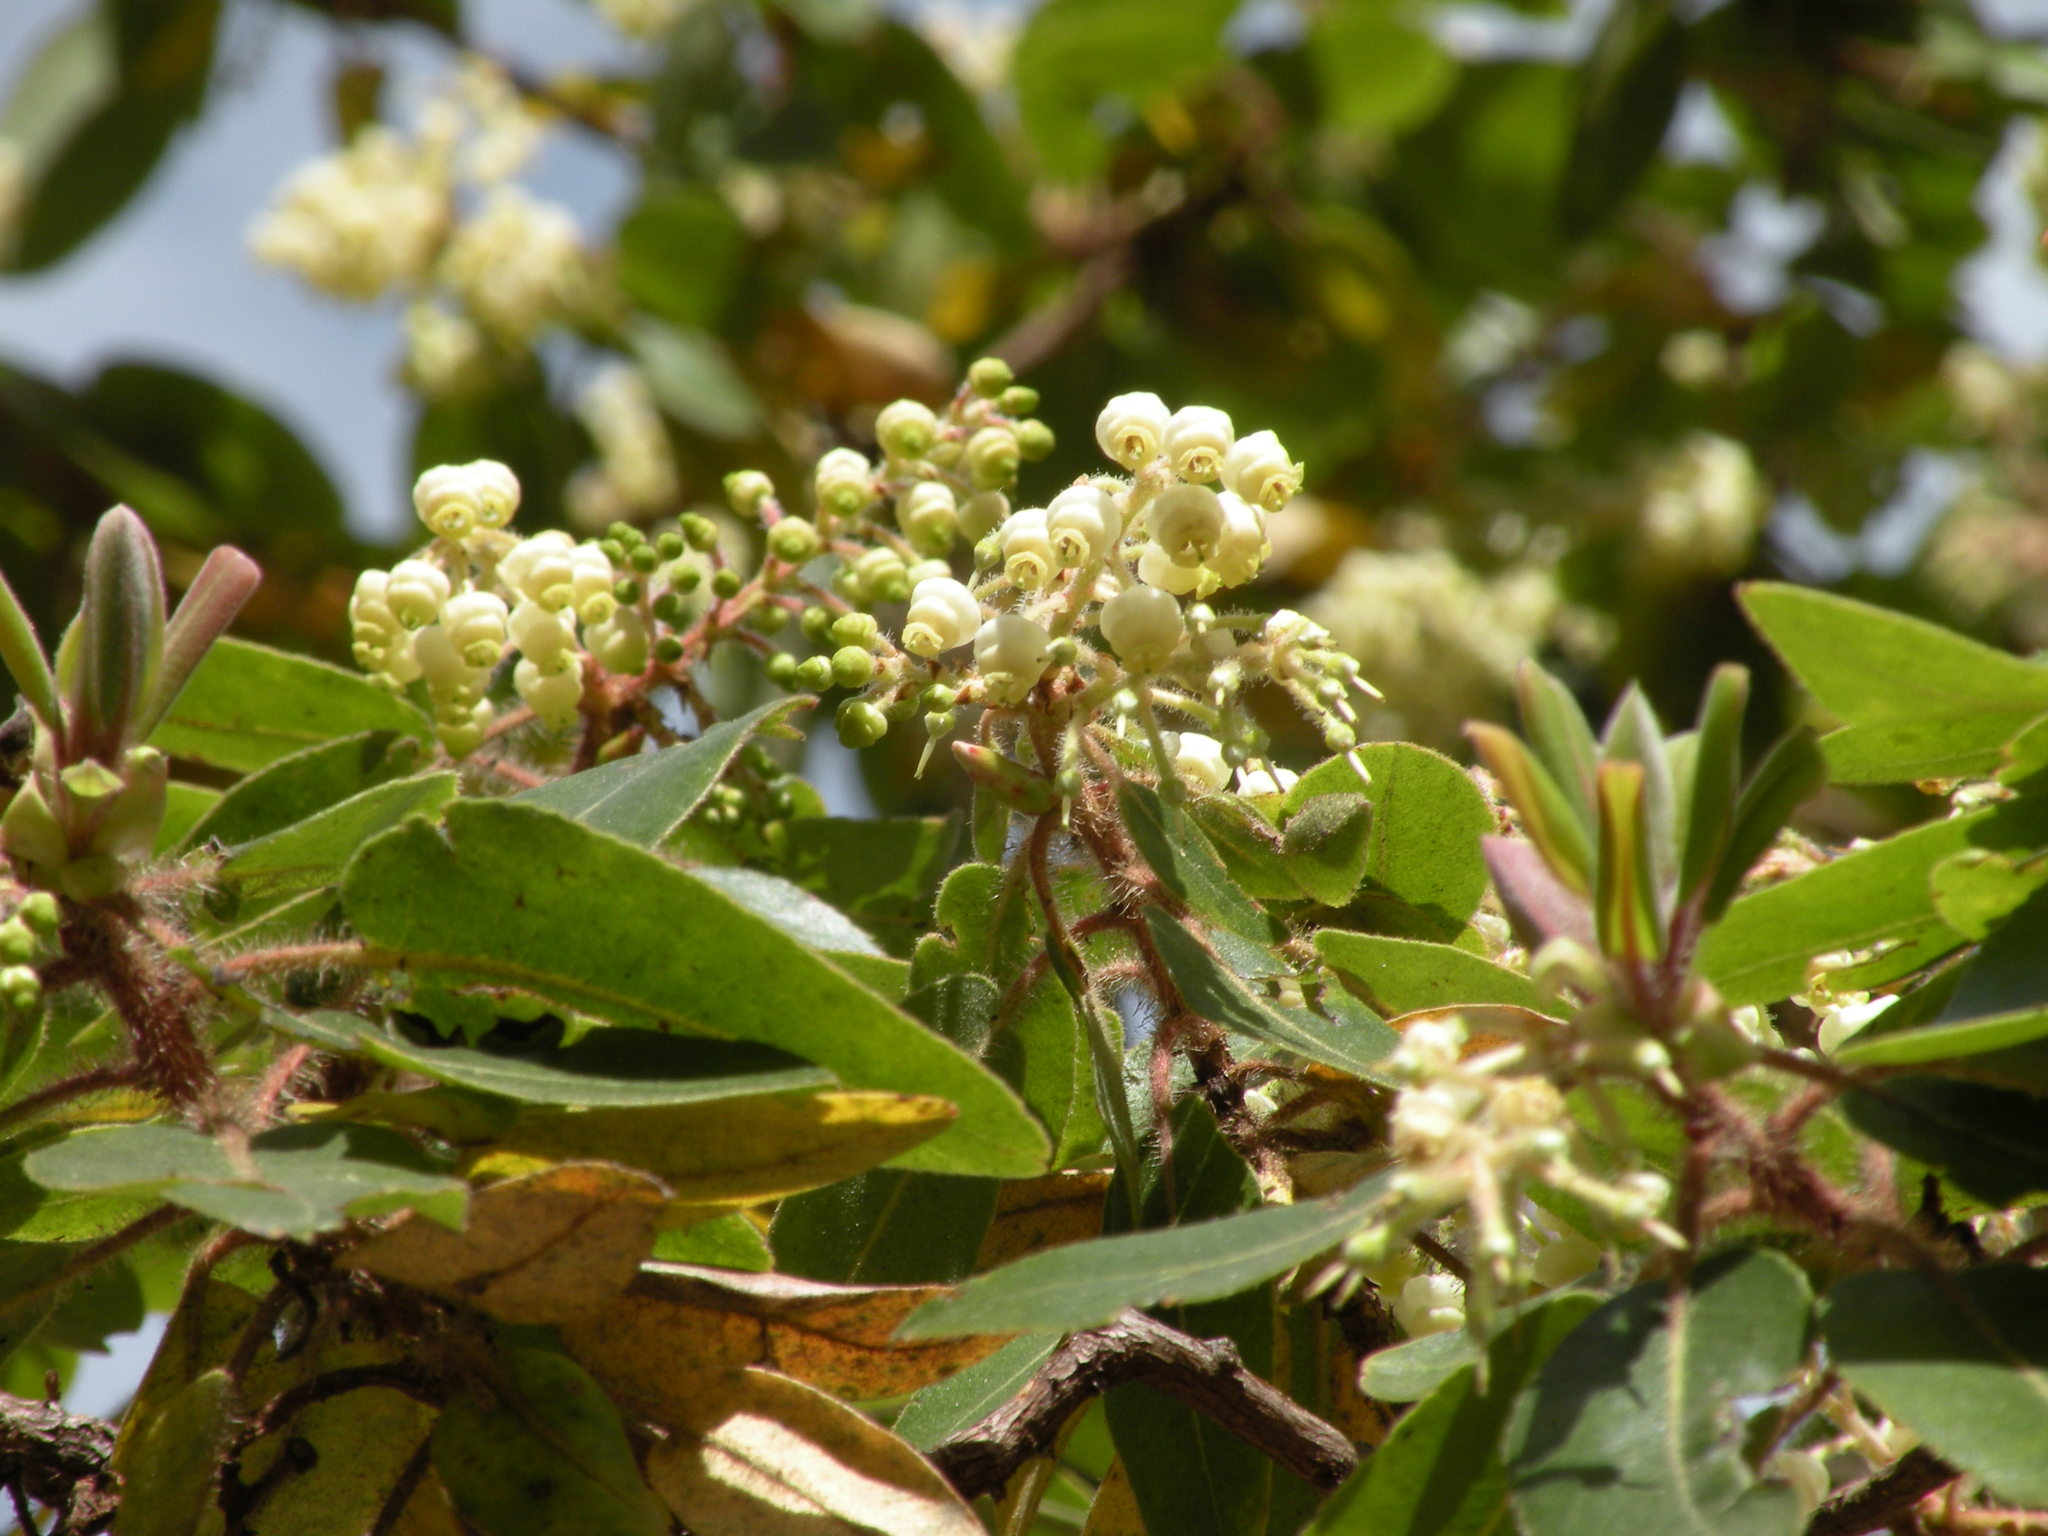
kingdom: Plantae
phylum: Tracheophyta
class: Magnoliopsida
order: Ericales
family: Ericaceae
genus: Arbutus
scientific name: Arbutus tessellata
